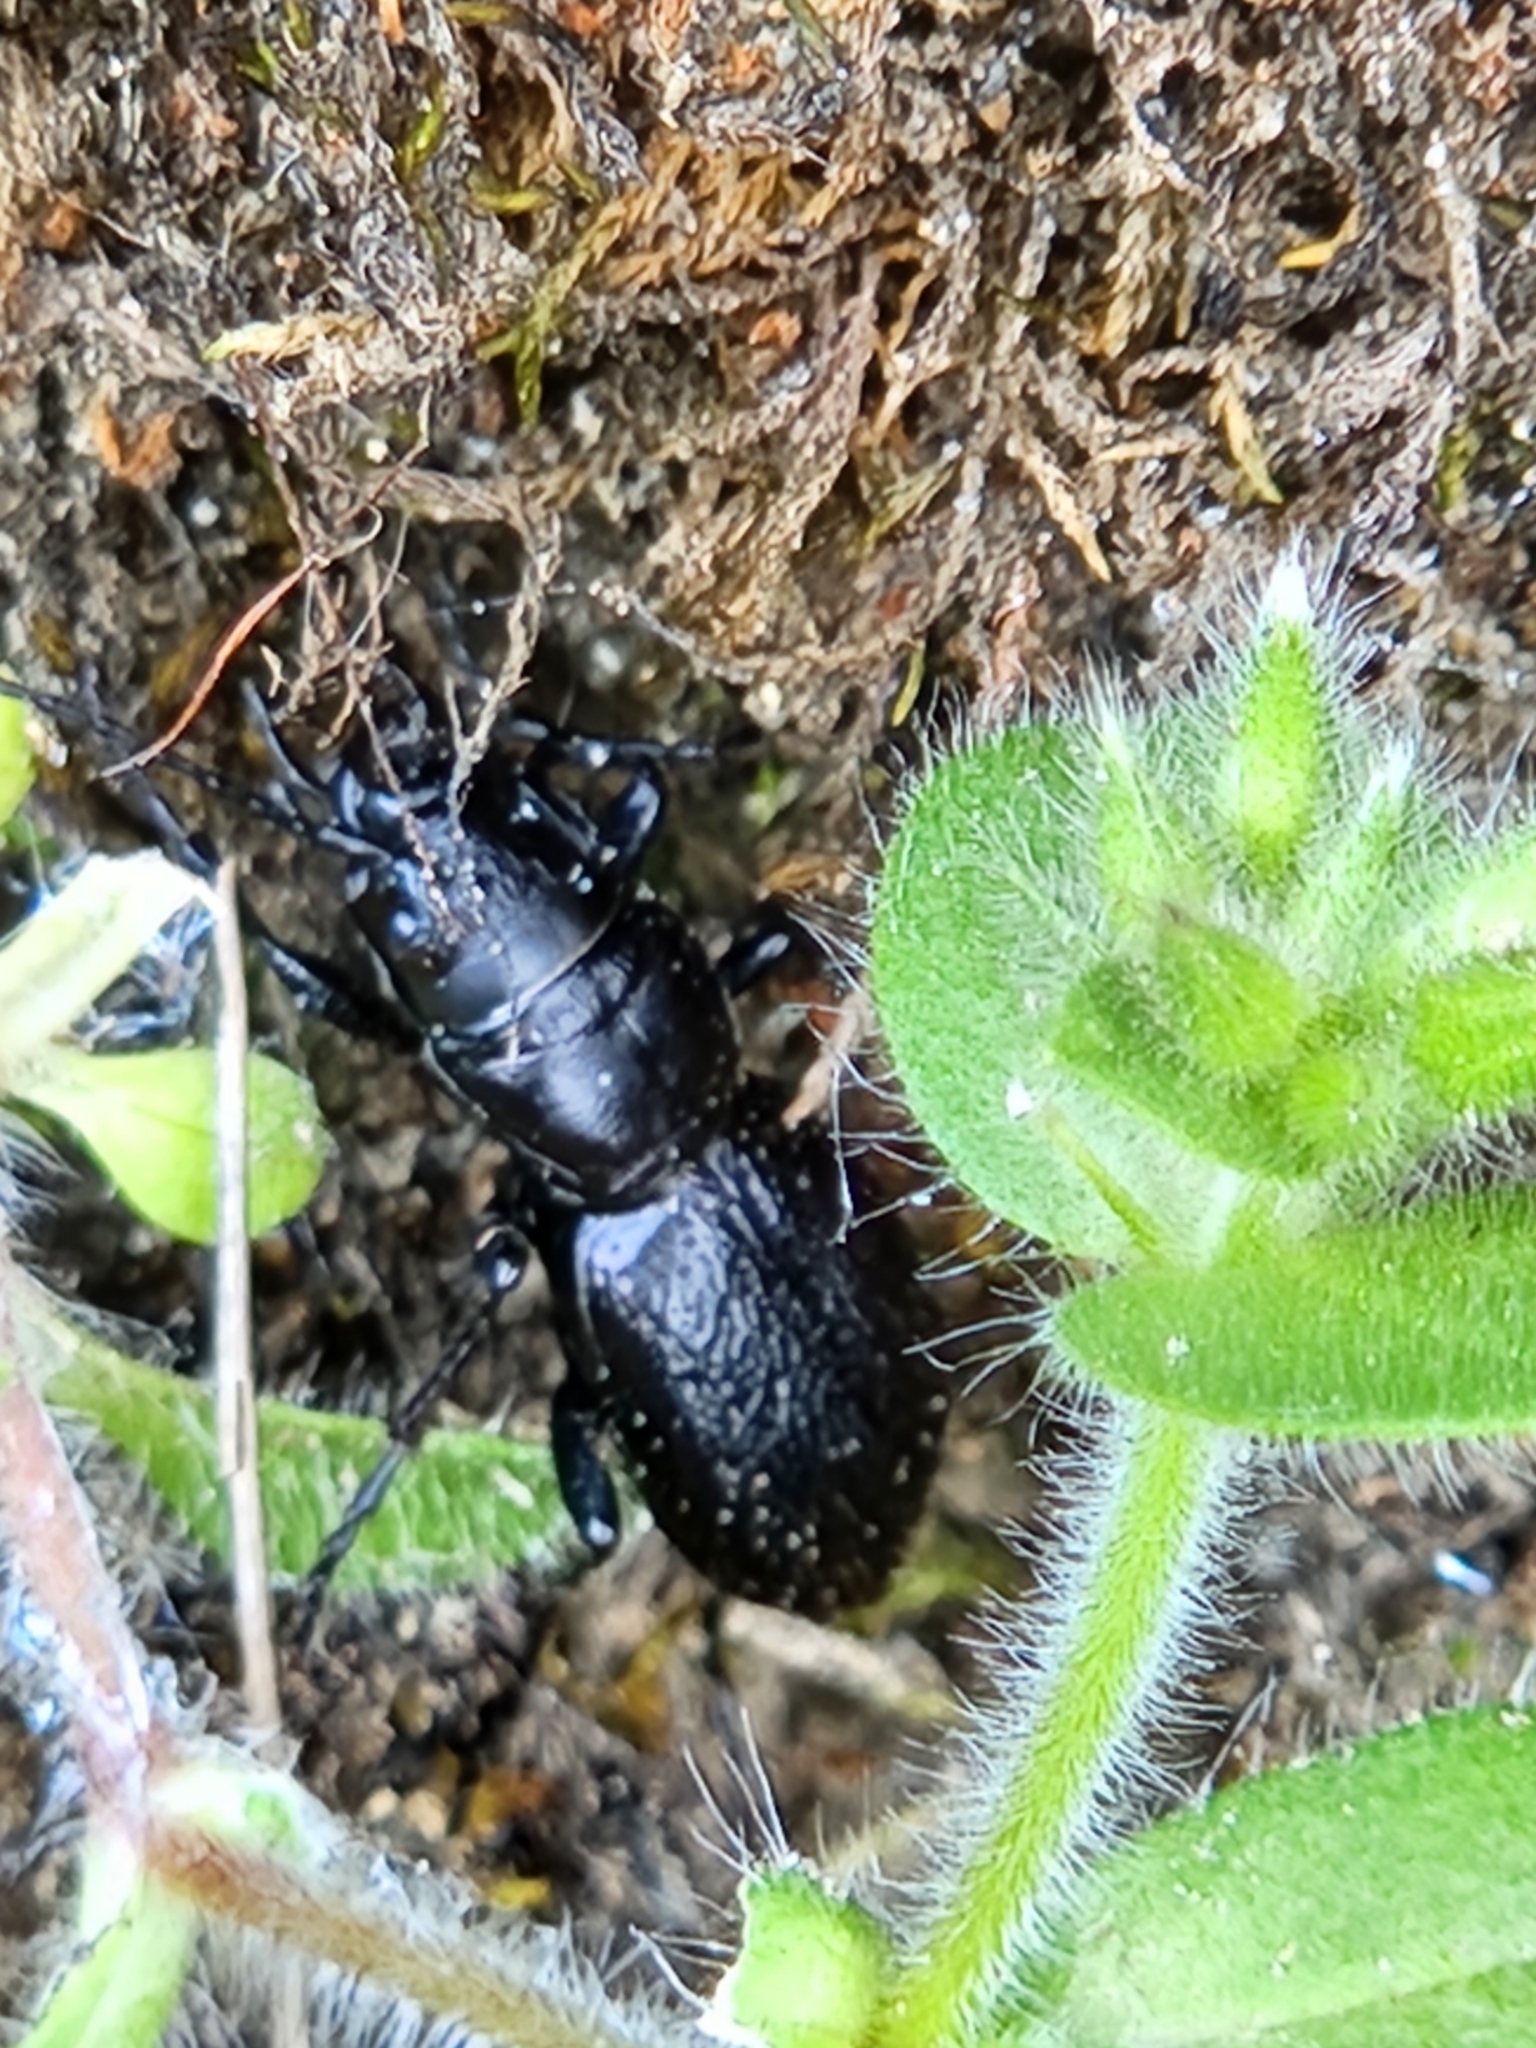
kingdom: Animalia
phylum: Arthropoda
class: Insecta
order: Coleoptera
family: Carabidae
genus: Omus
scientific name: Omus audouini
